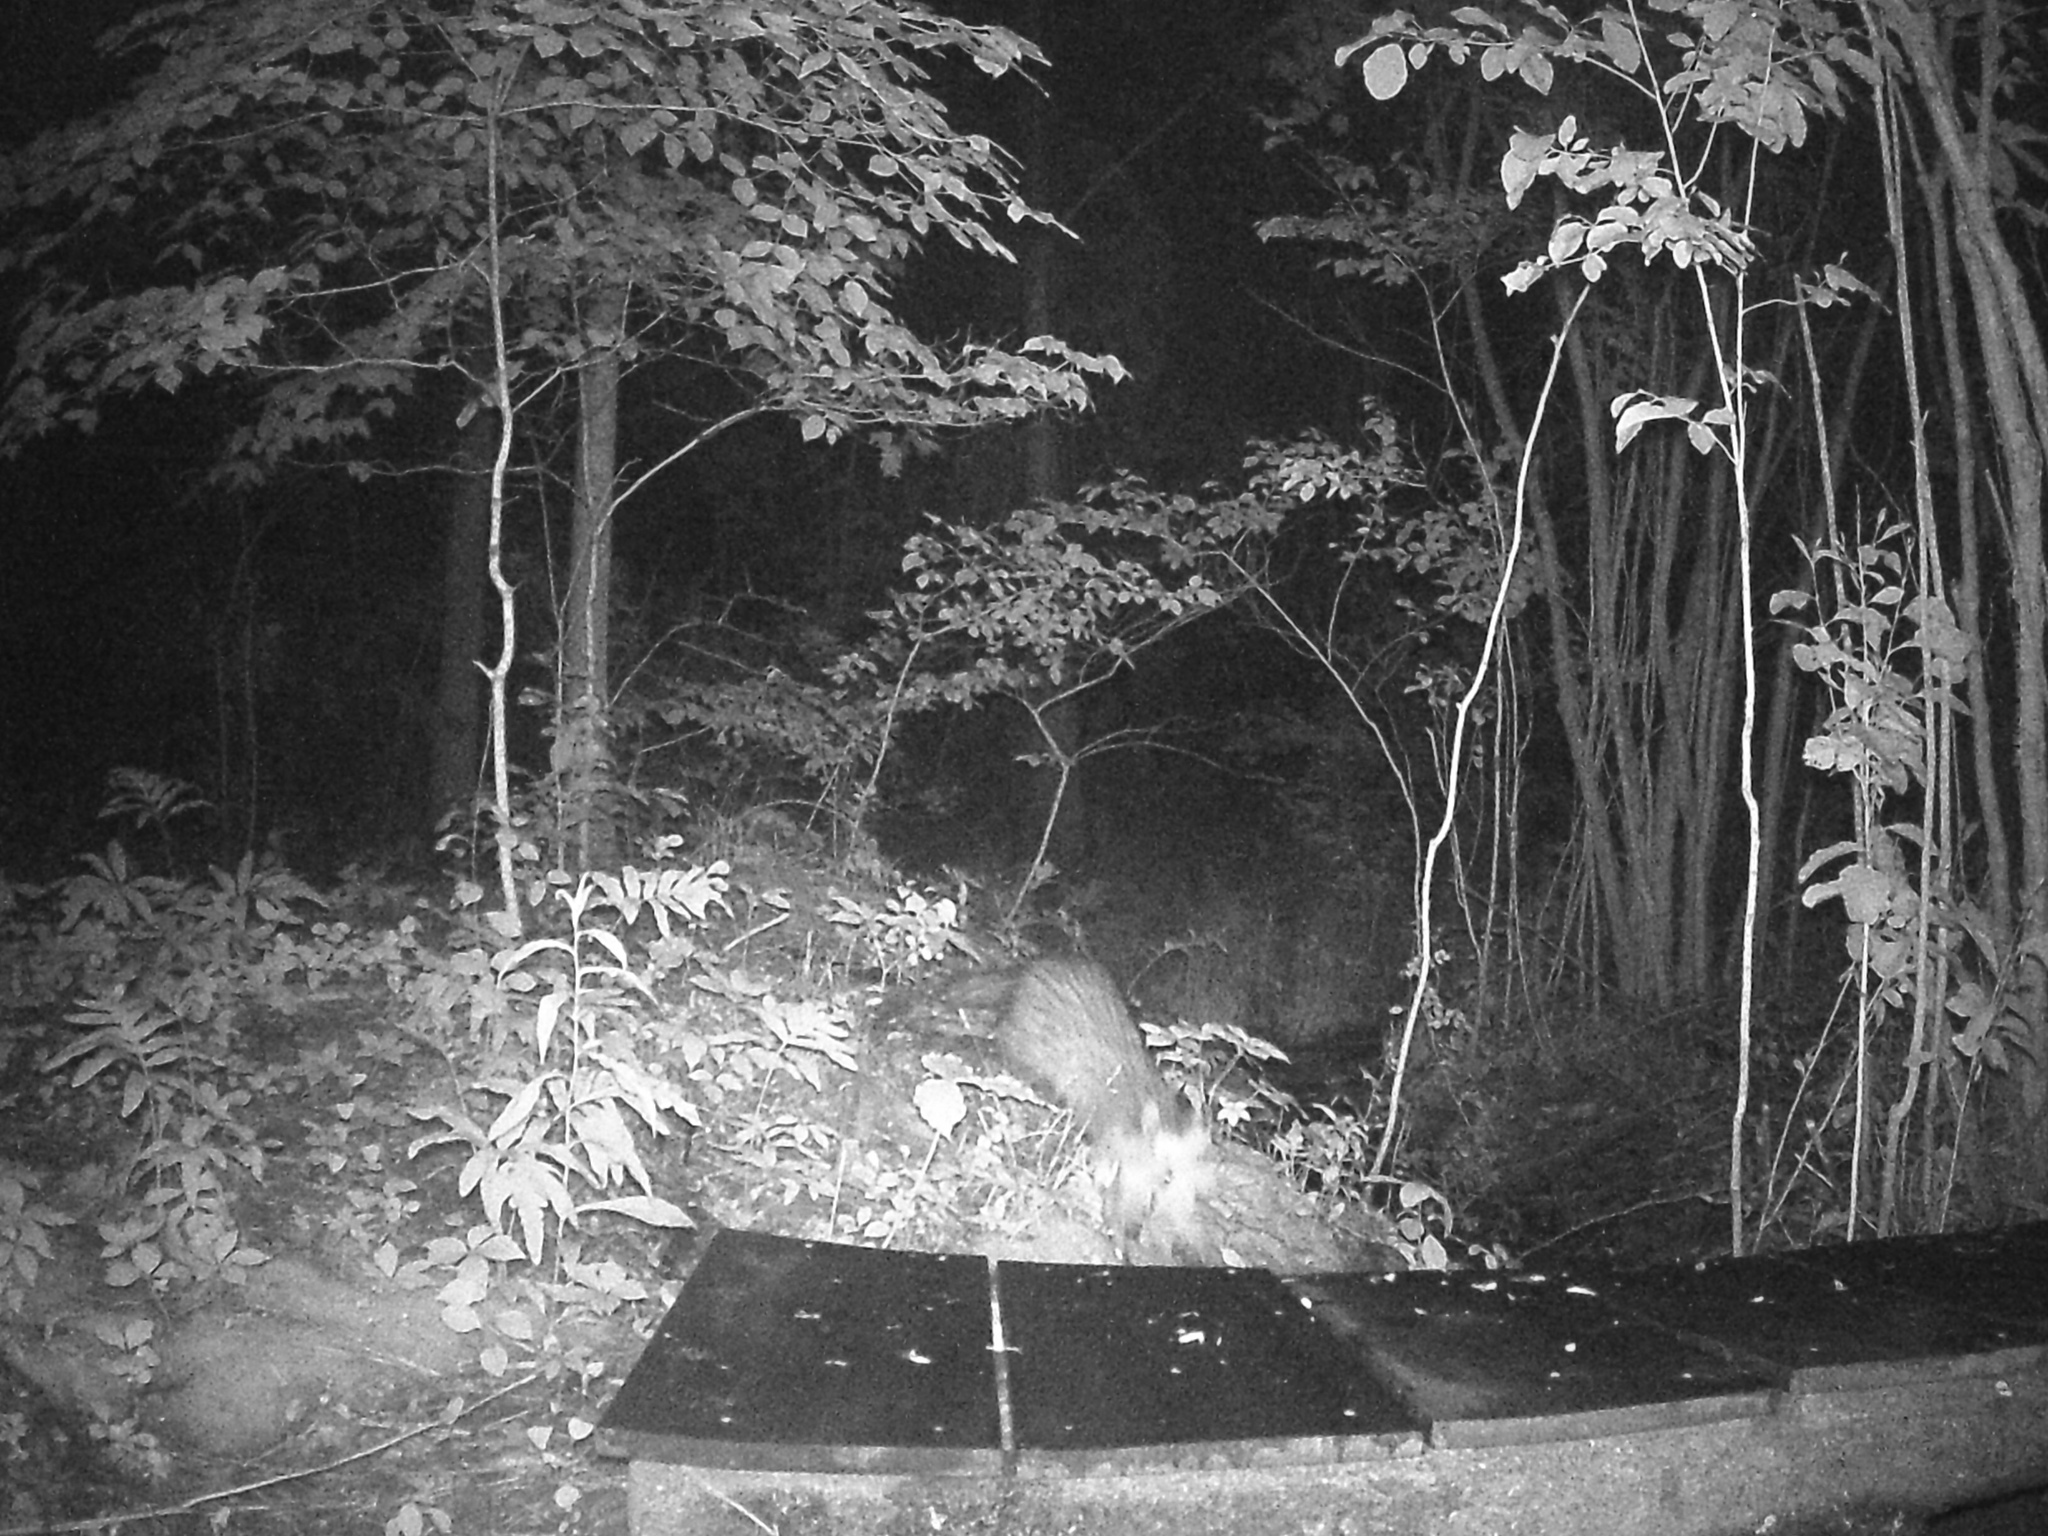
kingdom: Animalia
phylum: Chordata
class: Mammalia
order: Didelphimorphia
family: Didelphidae
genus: Didelphis
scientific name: Didelphis virginiana
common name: Virginia opossum
